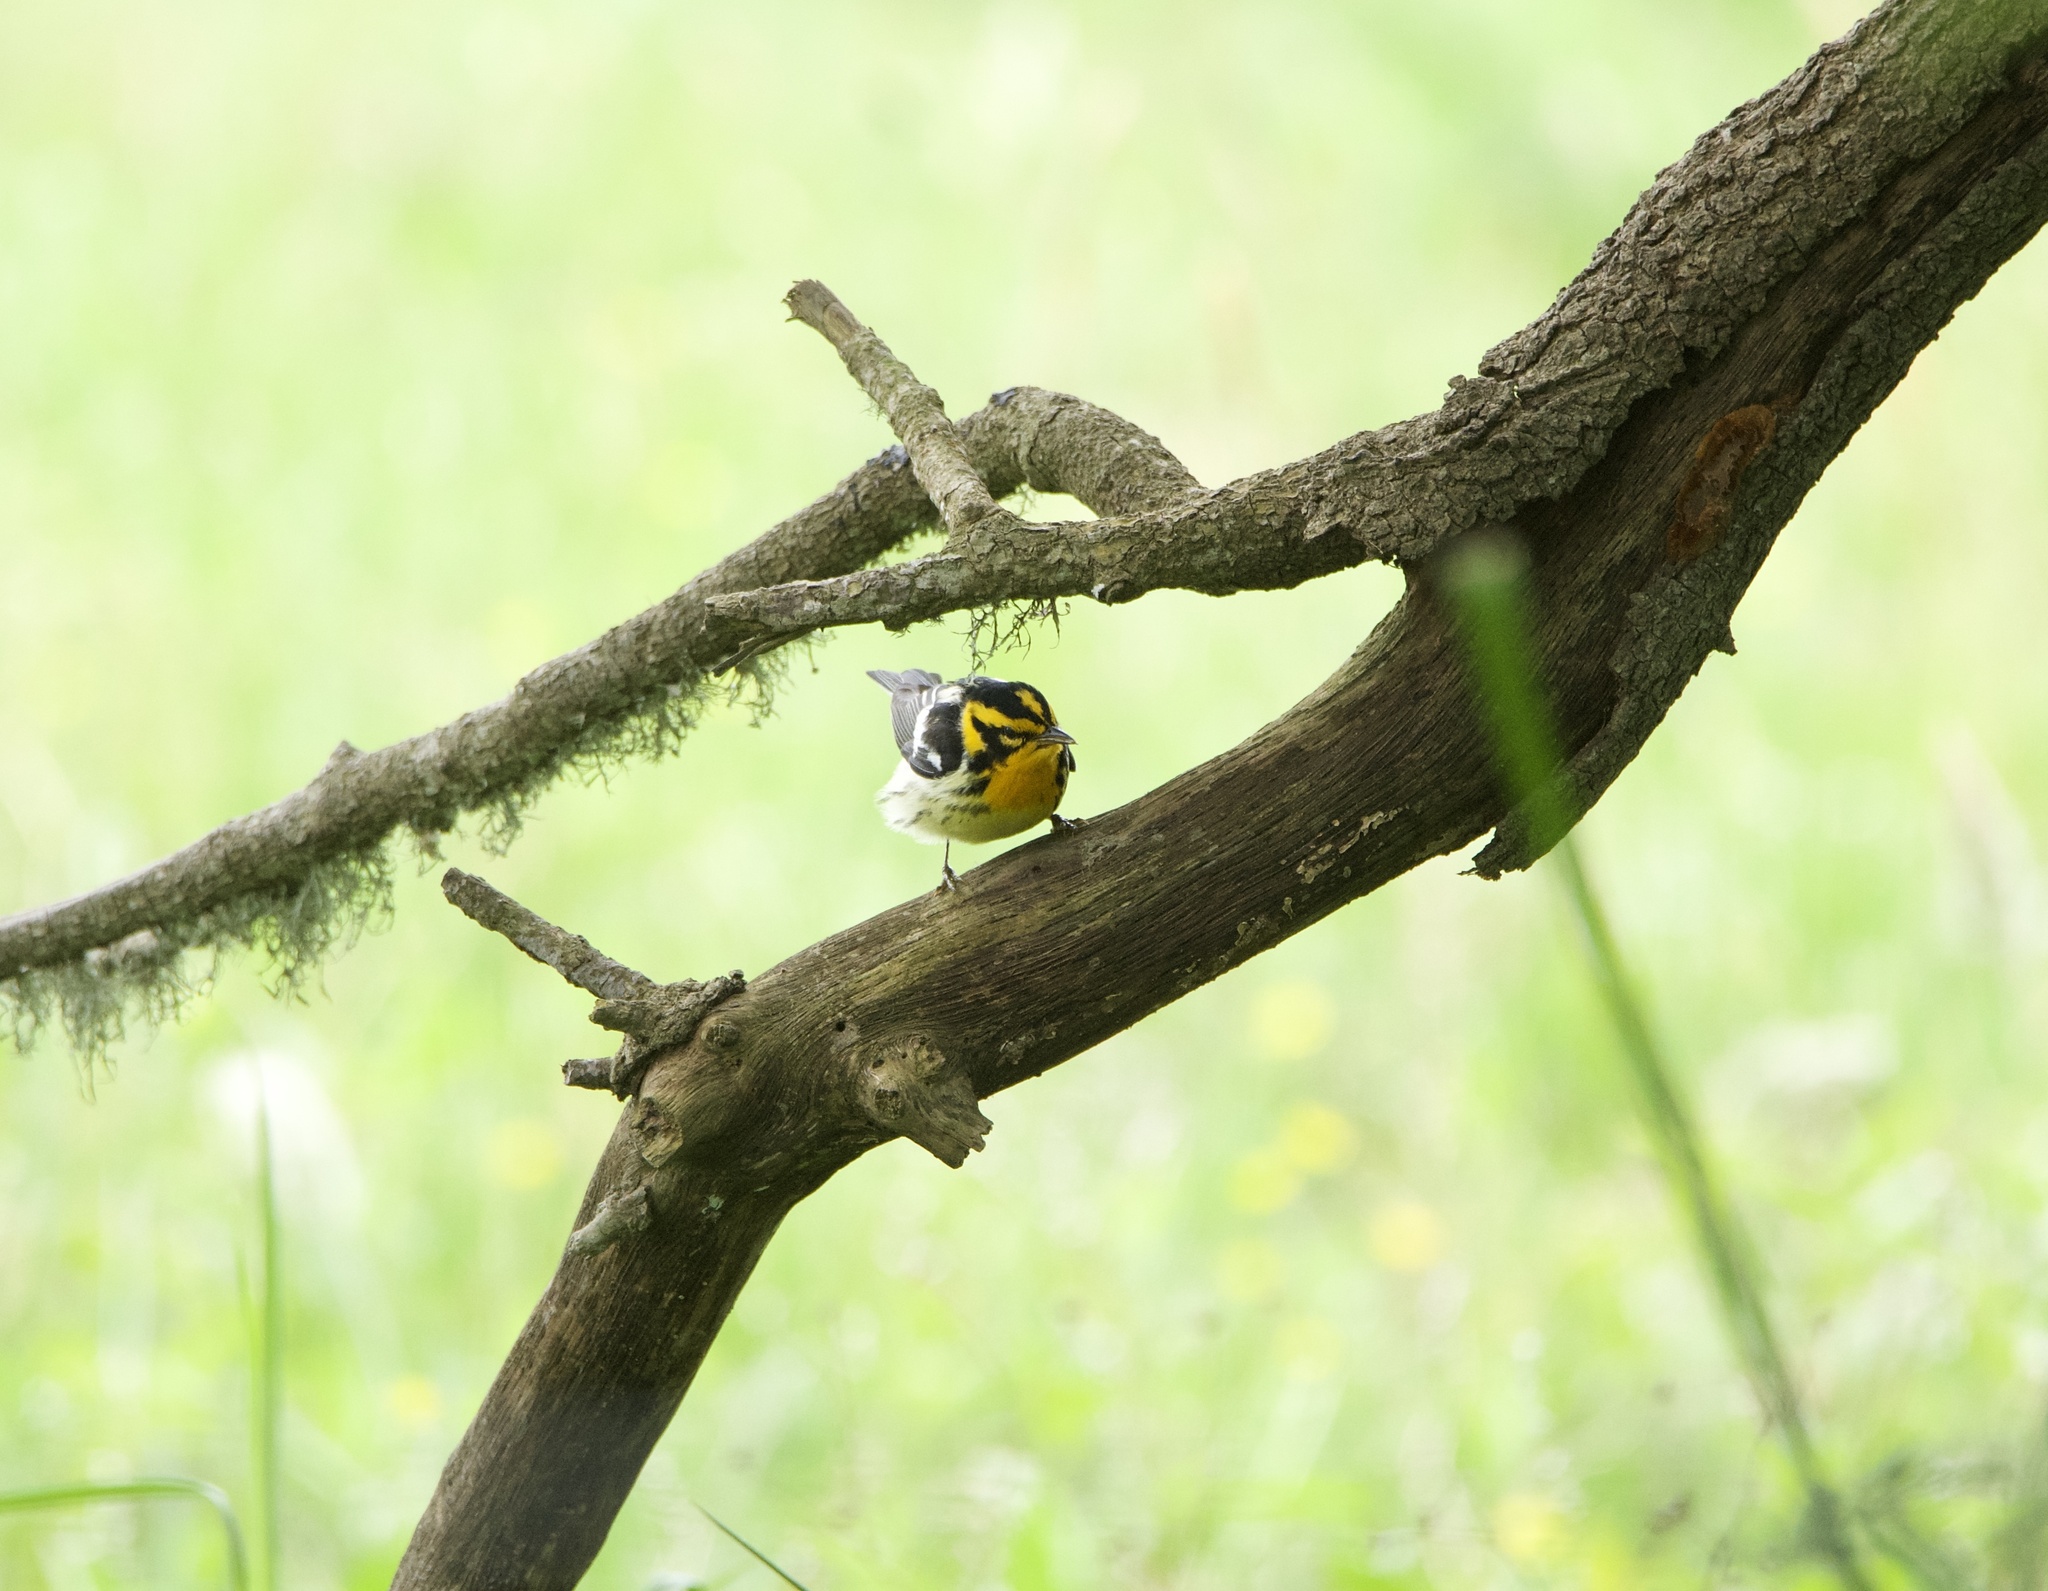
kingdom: Animalia
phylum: Chordata
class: Aves
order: Passeriformes
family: Parulidae
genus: Setophaga
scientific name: Setophaga fusca
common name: Blackburnian warbler
